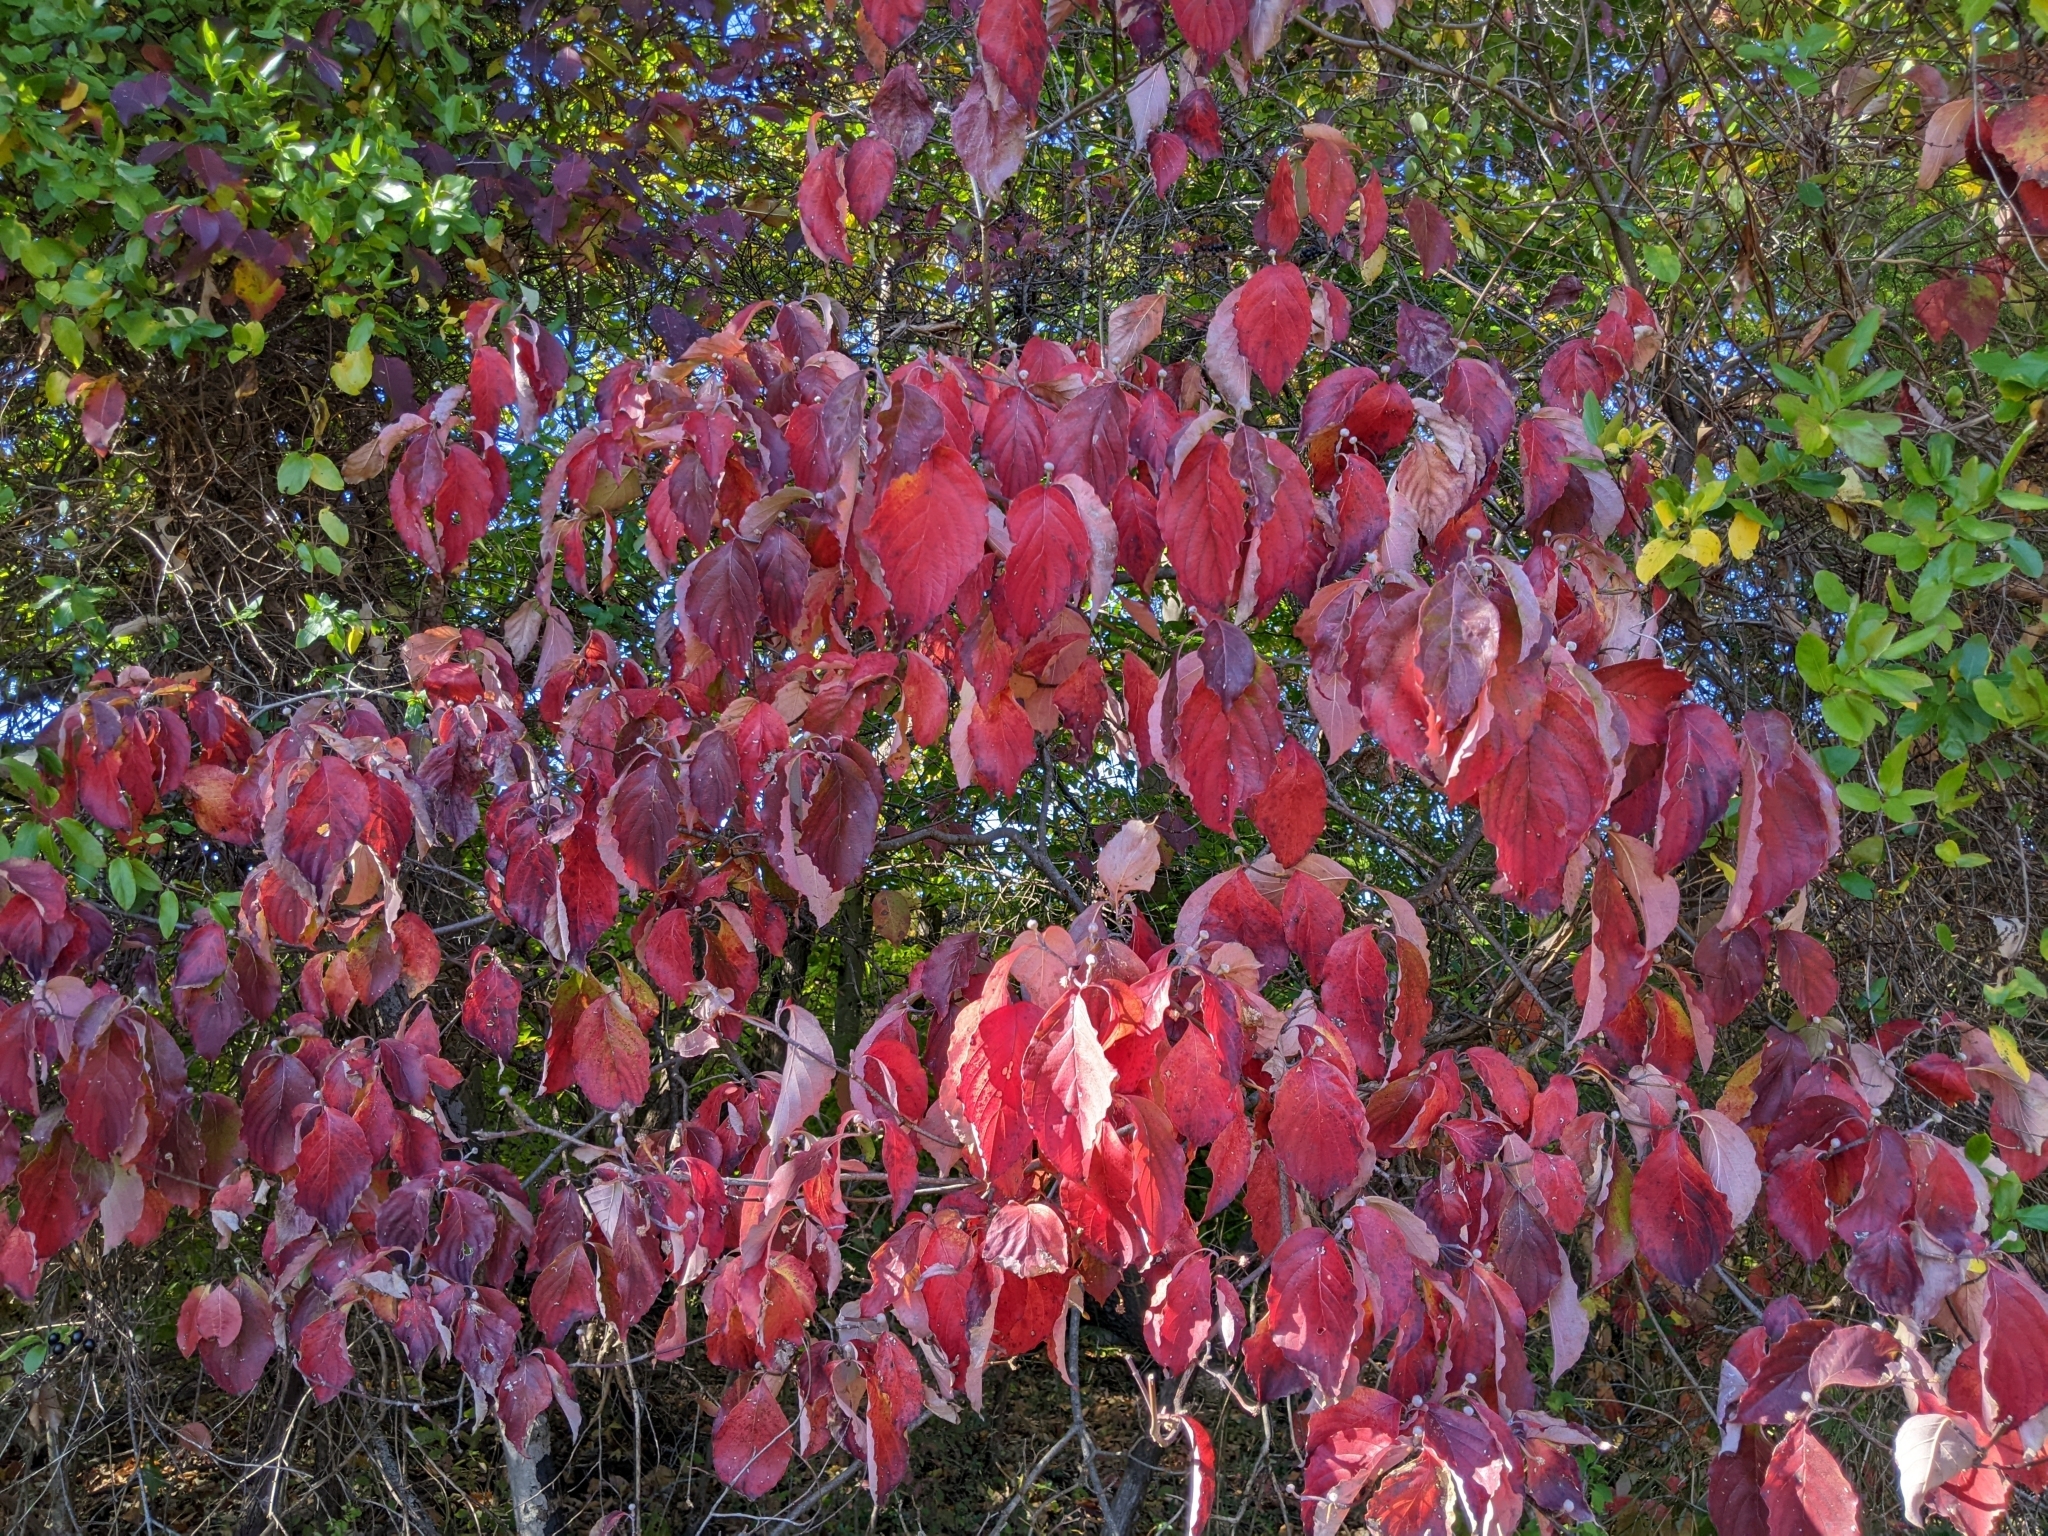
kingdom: Plantae
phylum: Tracheophyta
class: Magnoliopsida
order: Cornales
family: Cornaceae
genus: Cornus
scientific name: Cornus florida
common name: Flowering dogwood
